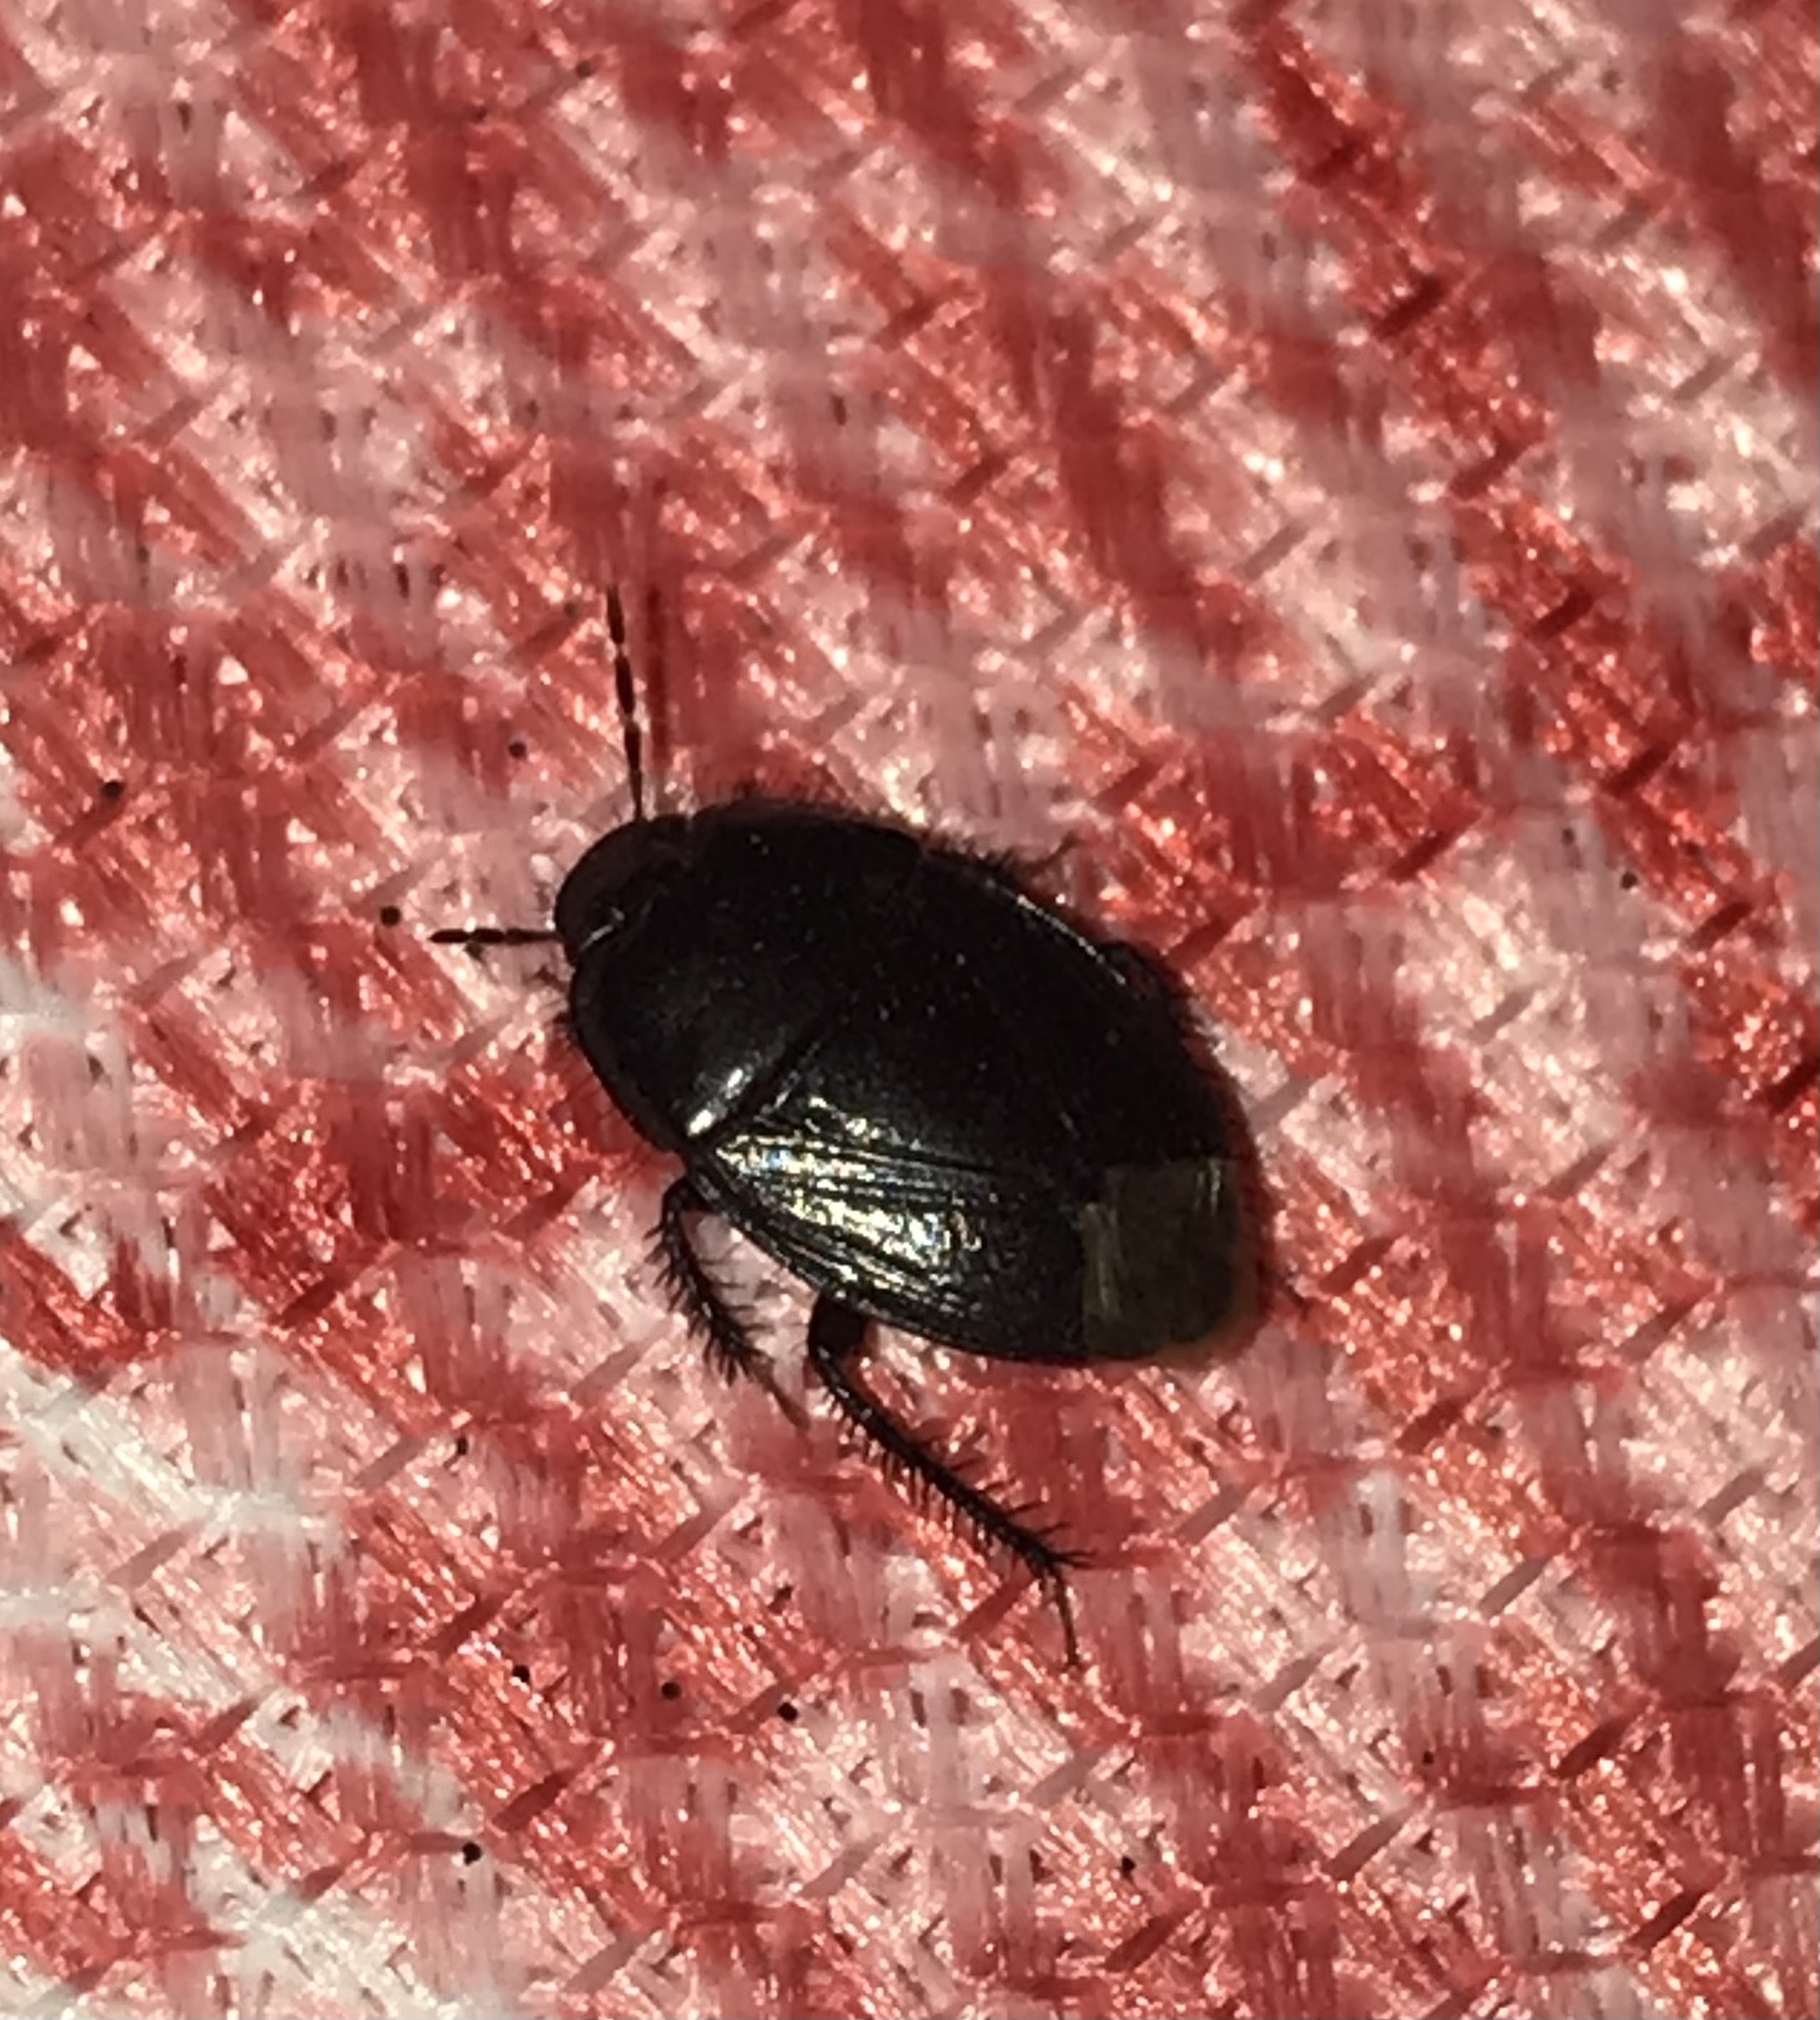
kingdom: Animalia
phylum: Arthropoda
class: Insecta
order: Hemiptera
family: Cydnidae
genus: Macroscytus
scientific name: Macroscytus brunneus
